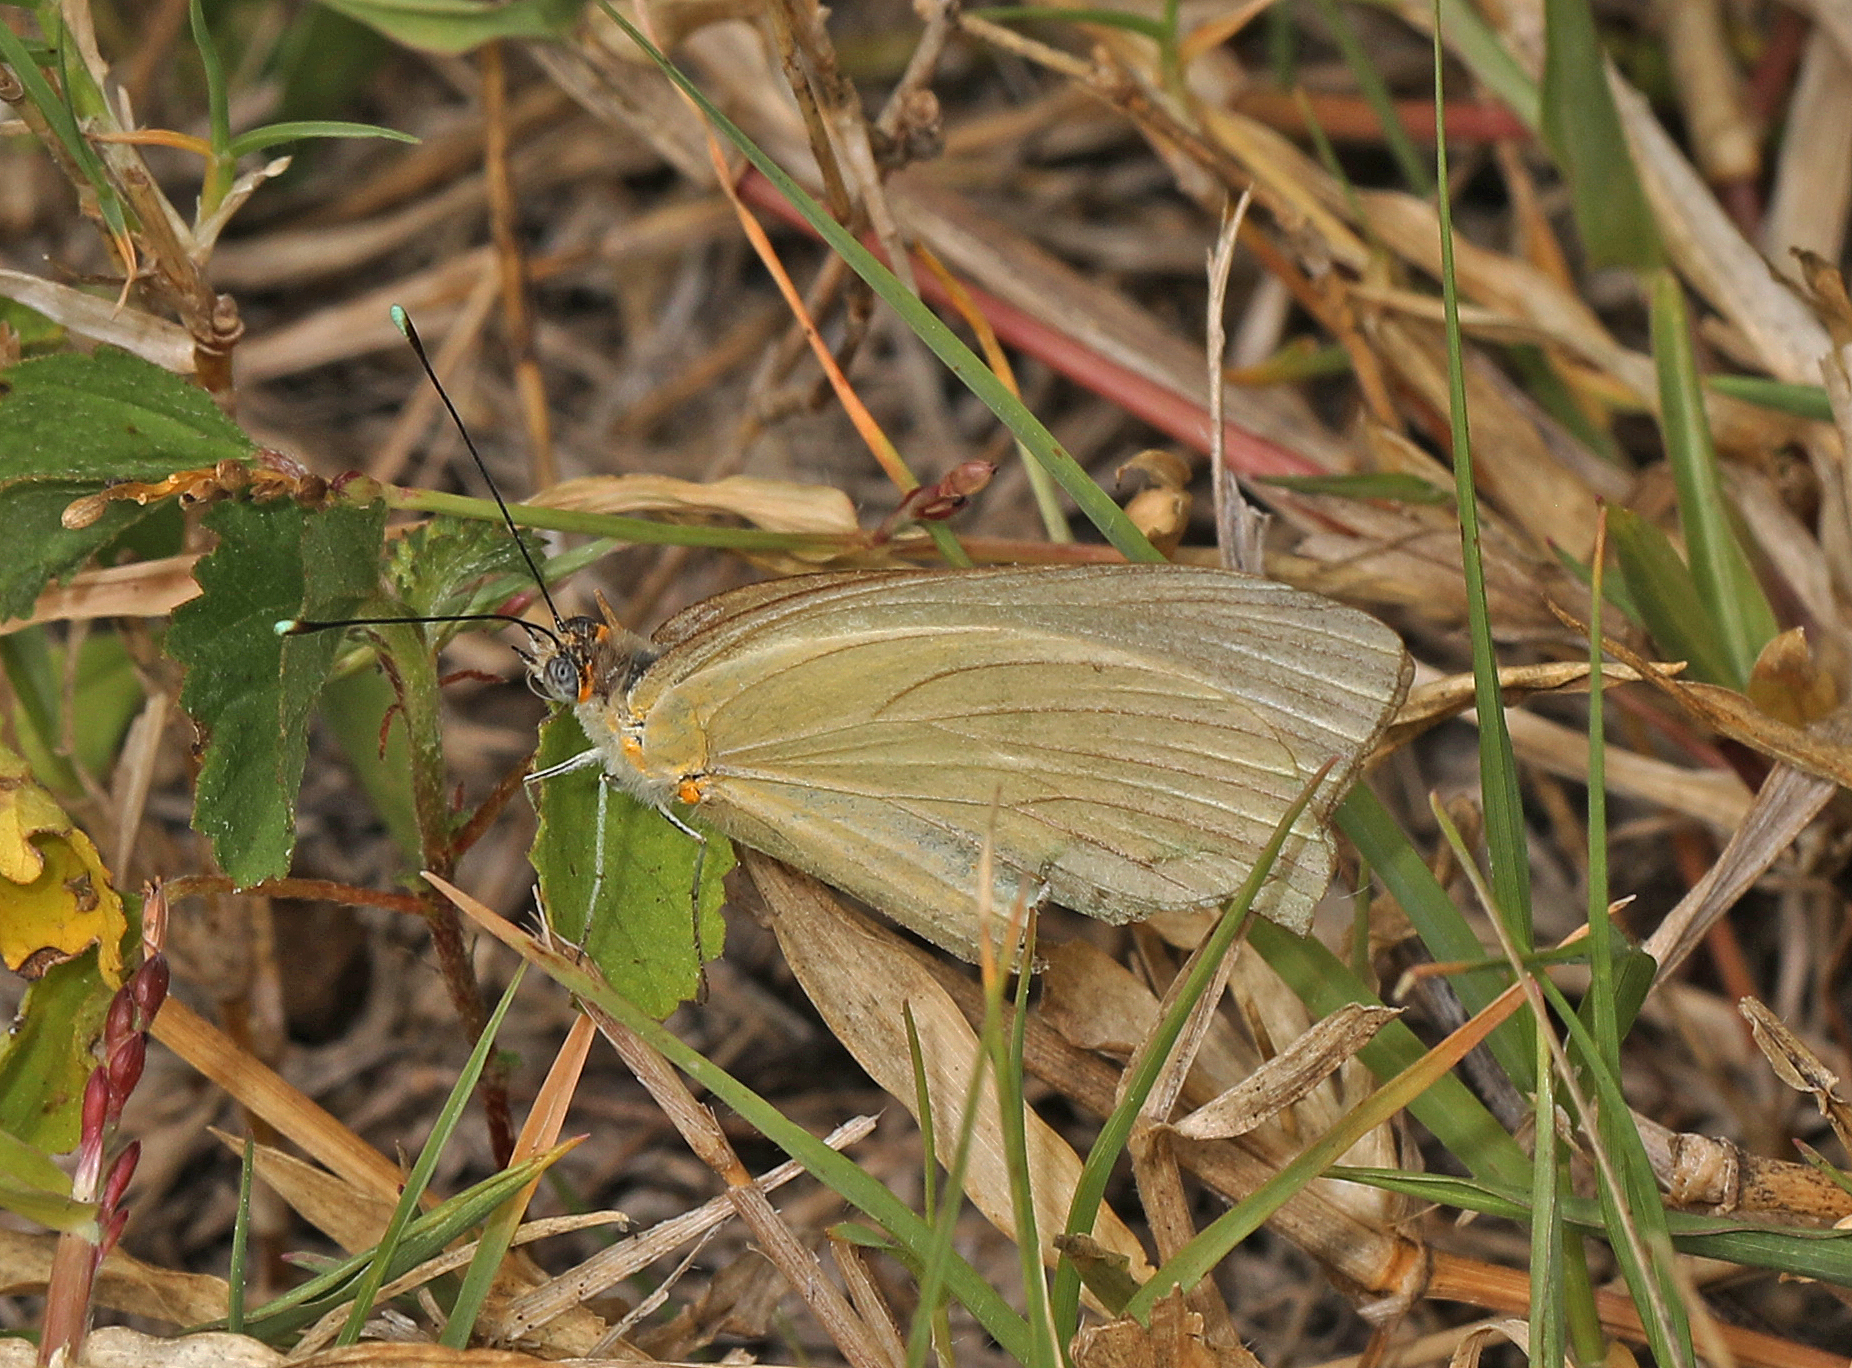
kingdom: Animalia
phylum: Arthropoda
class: Insecta
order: Lepidoptera
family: Pieridae
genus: Ascia
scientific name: Ascia monuste
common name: Great southern white
